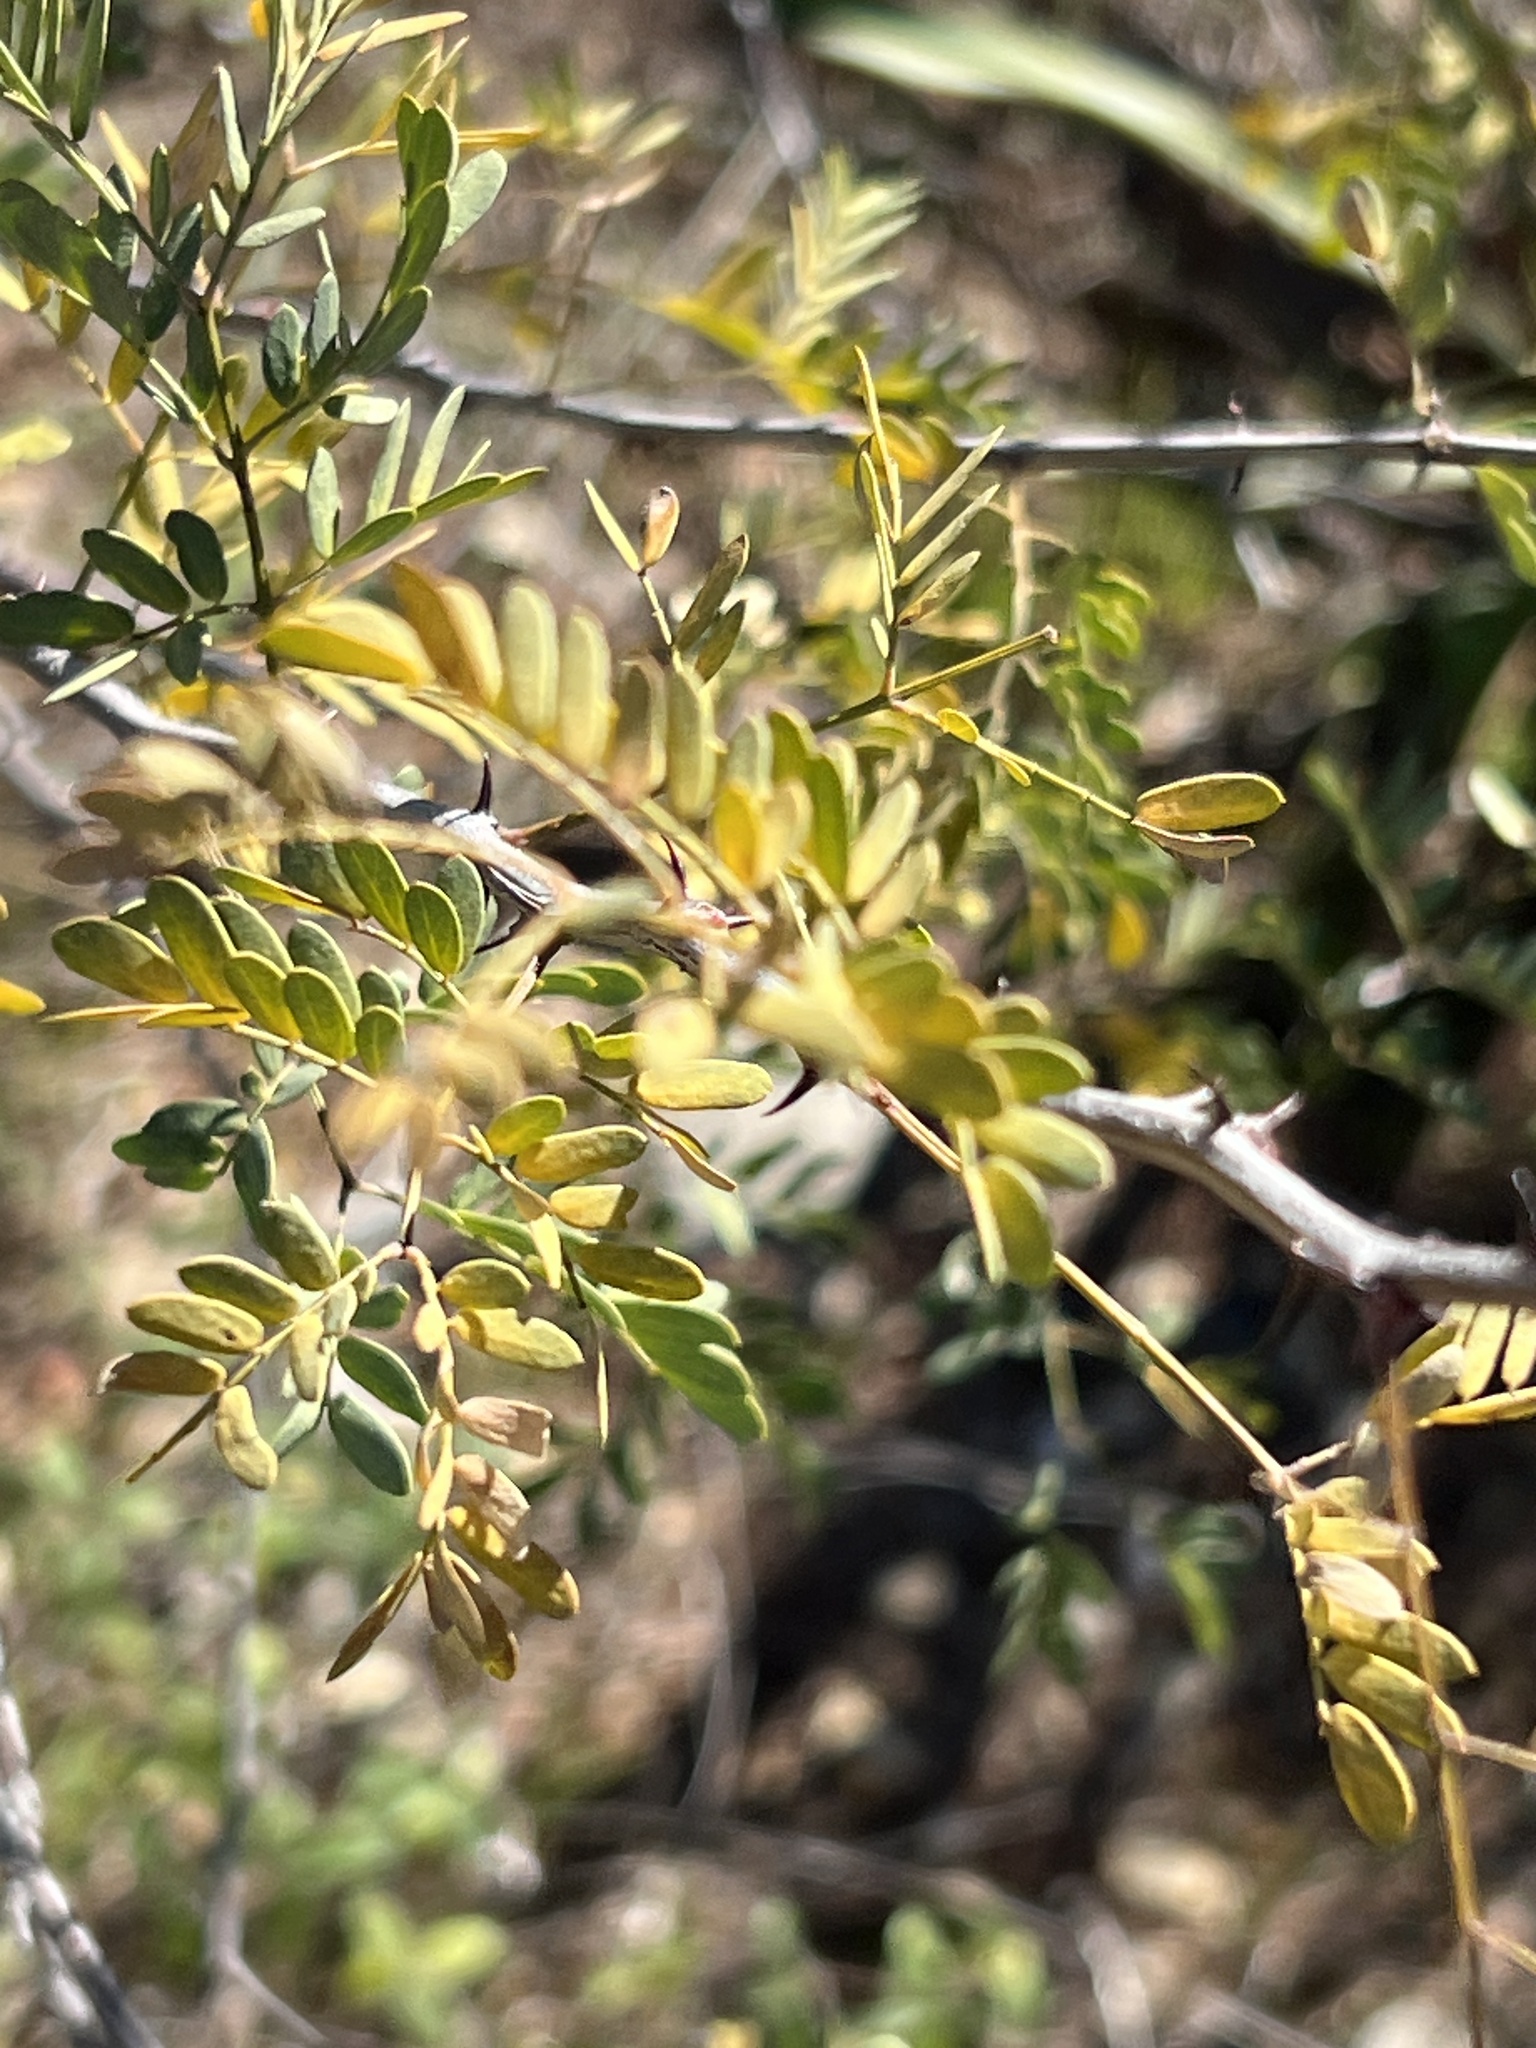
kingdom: Plantae
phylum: Tracheophyta
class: Magnoliopsida
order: Fabales
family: Fabaceae
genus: Senegalia
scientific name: Senegalia roemeriana
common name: Roemer's acacia
